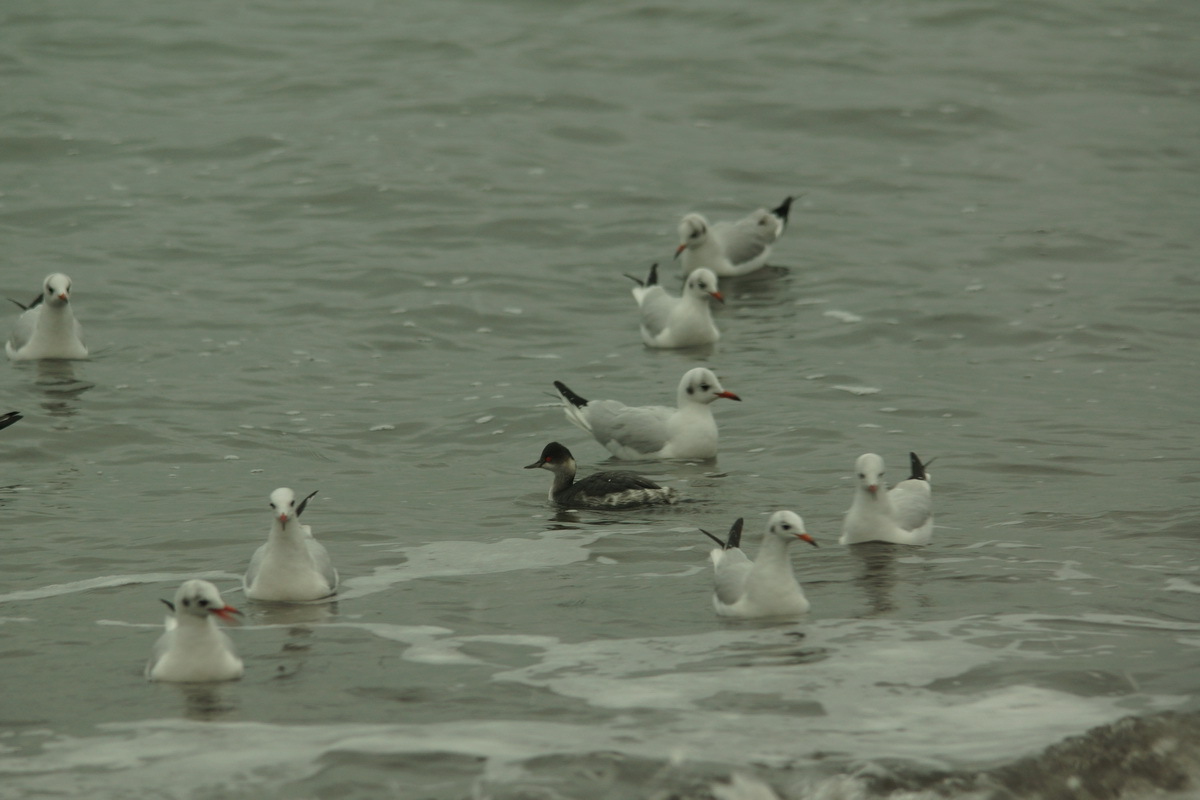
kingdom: Animalia
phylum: Chordata
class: Aves
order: Podicipediformes
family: Podicipedidae
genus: Podiceps
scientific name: Podiceps nigricollis
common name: Black-necked grebe
